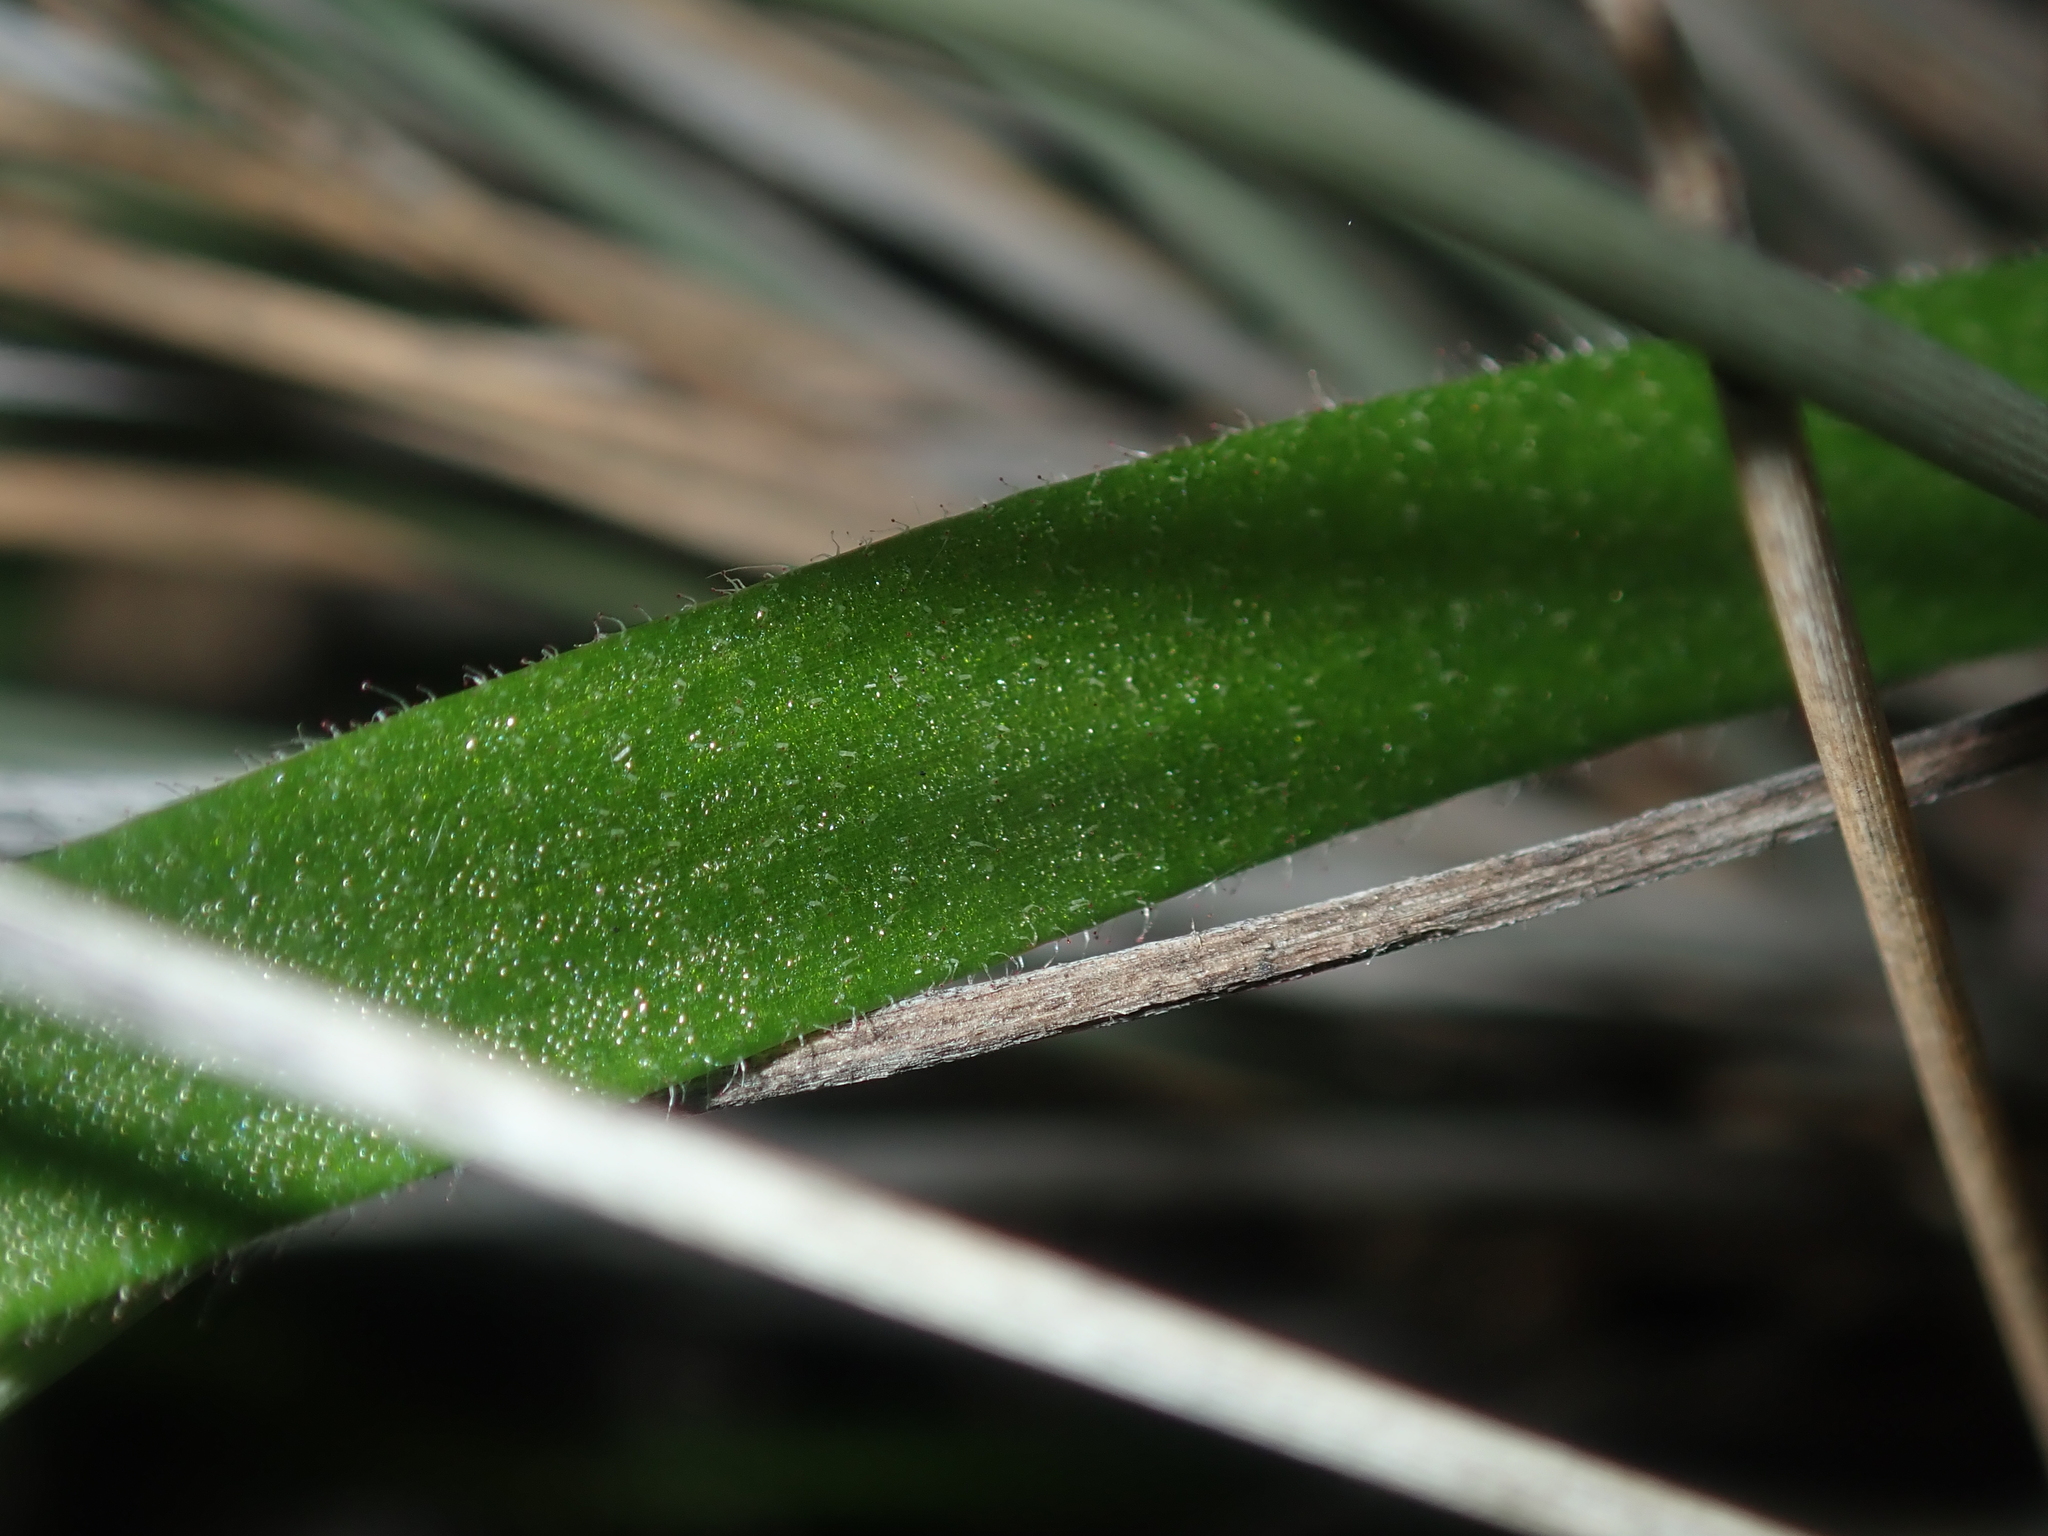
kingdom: Plantae
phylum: Tracheophyta
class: Liliopsida
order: Asparagales
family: Orchidaceae
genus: Caladenia
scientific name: Caladenia flava
